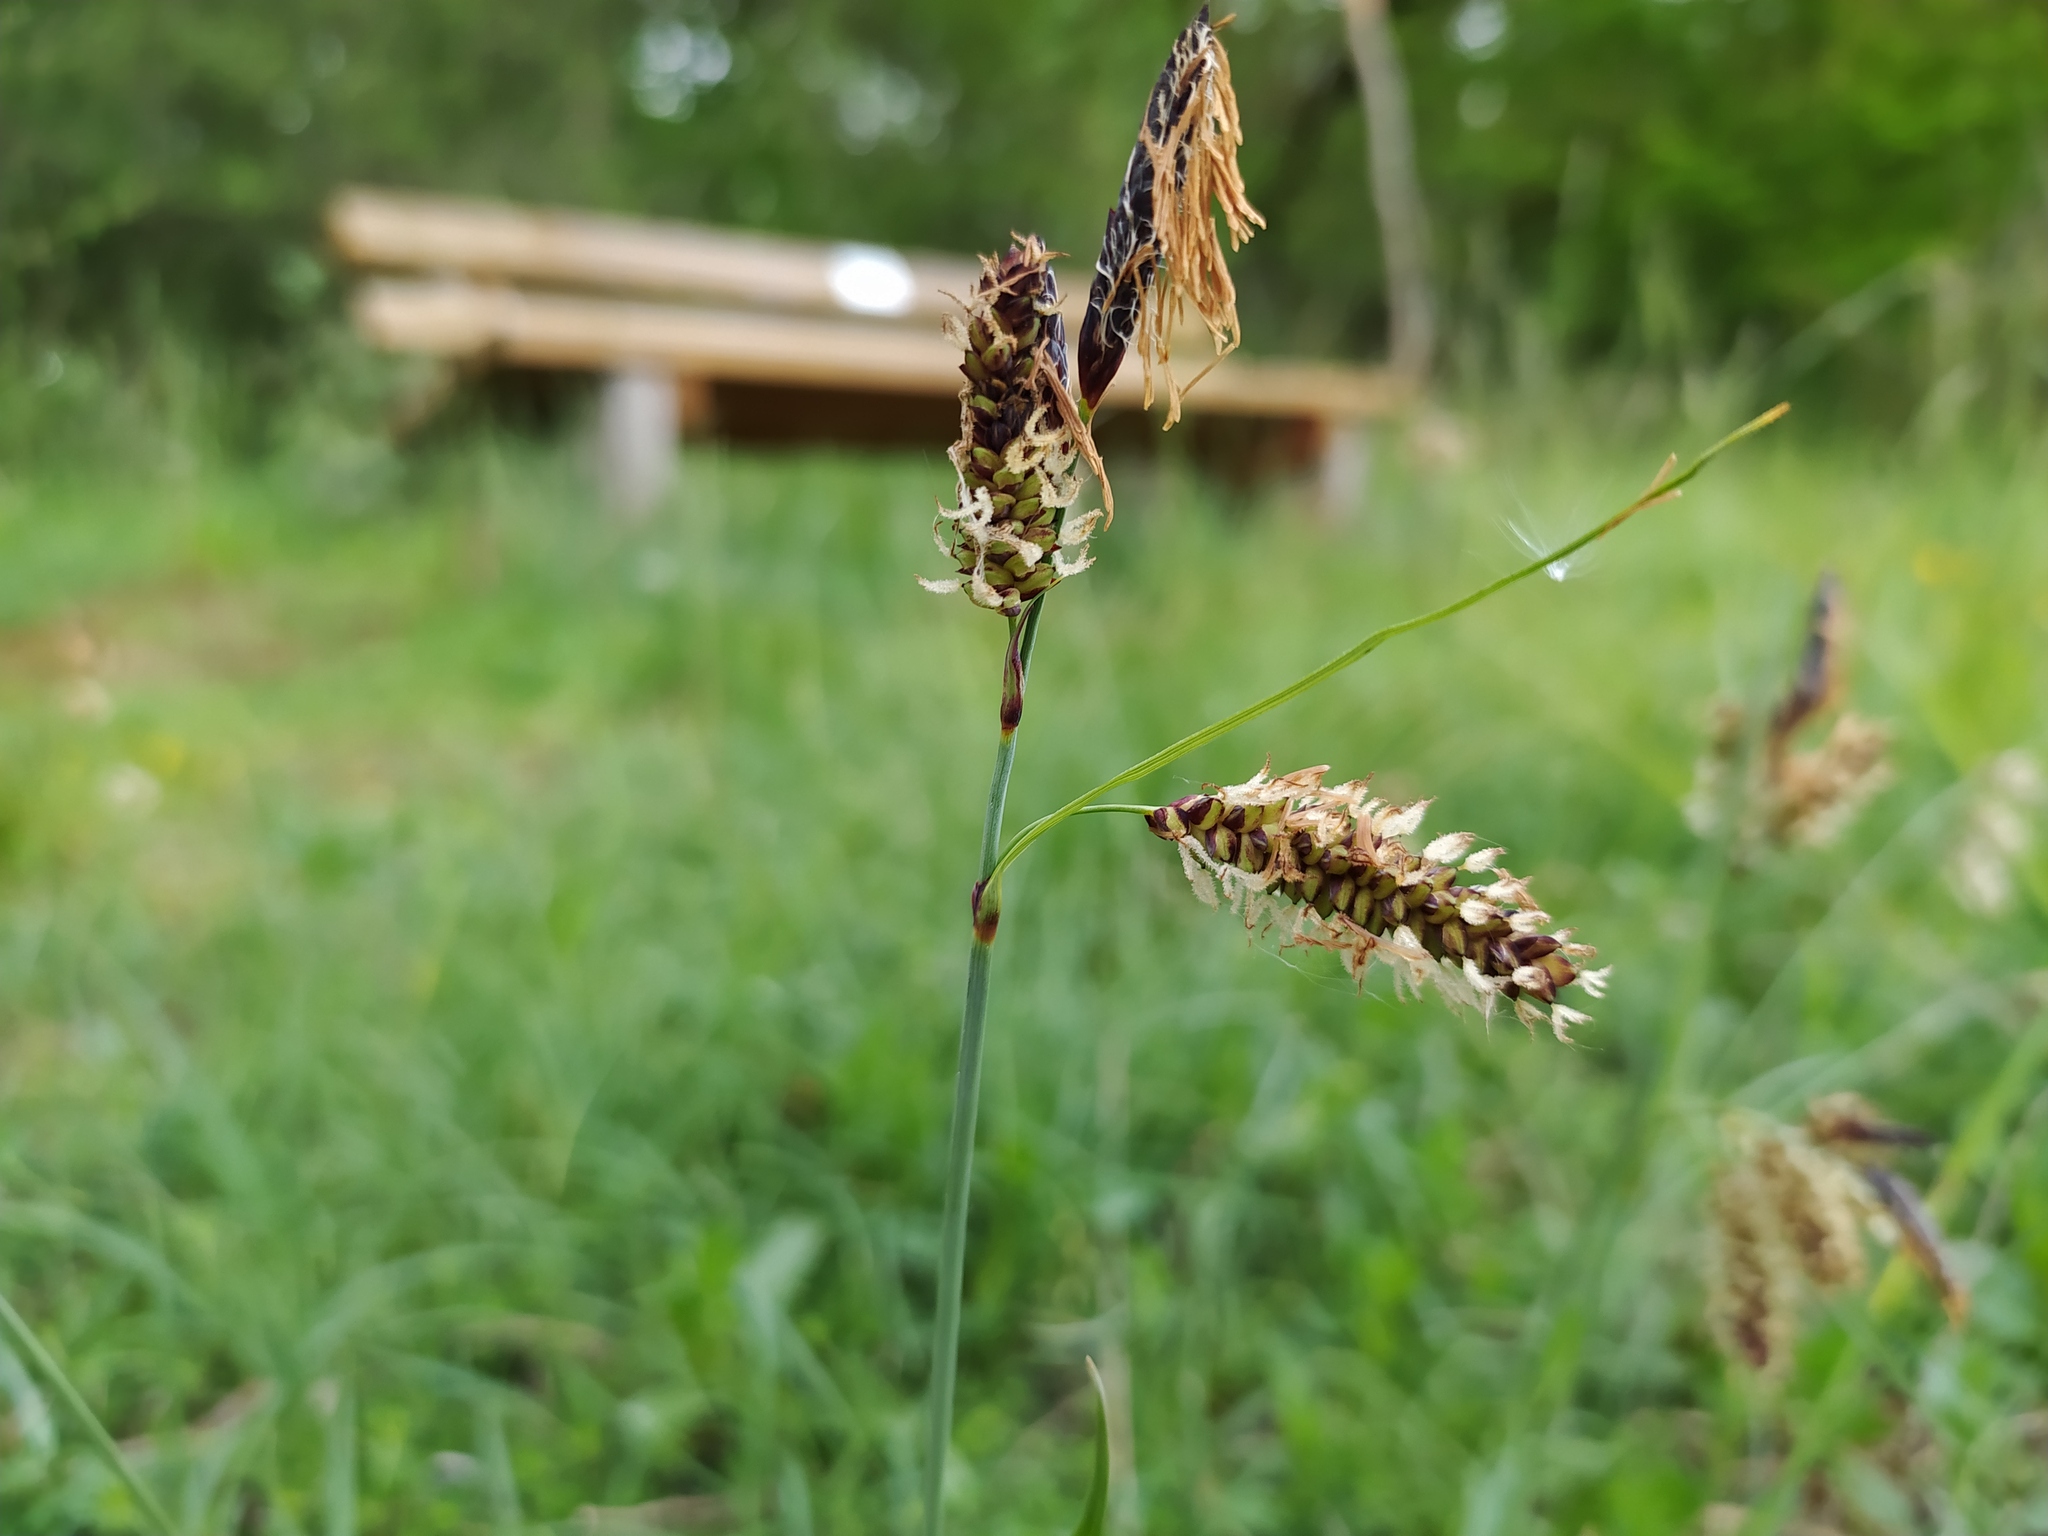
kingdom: Plantae
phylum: Tracheophyta
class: Liliopsida
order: Poales
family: Cyperaceae
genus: Carex
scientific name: Carex flacca
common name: Glaucous sedge
